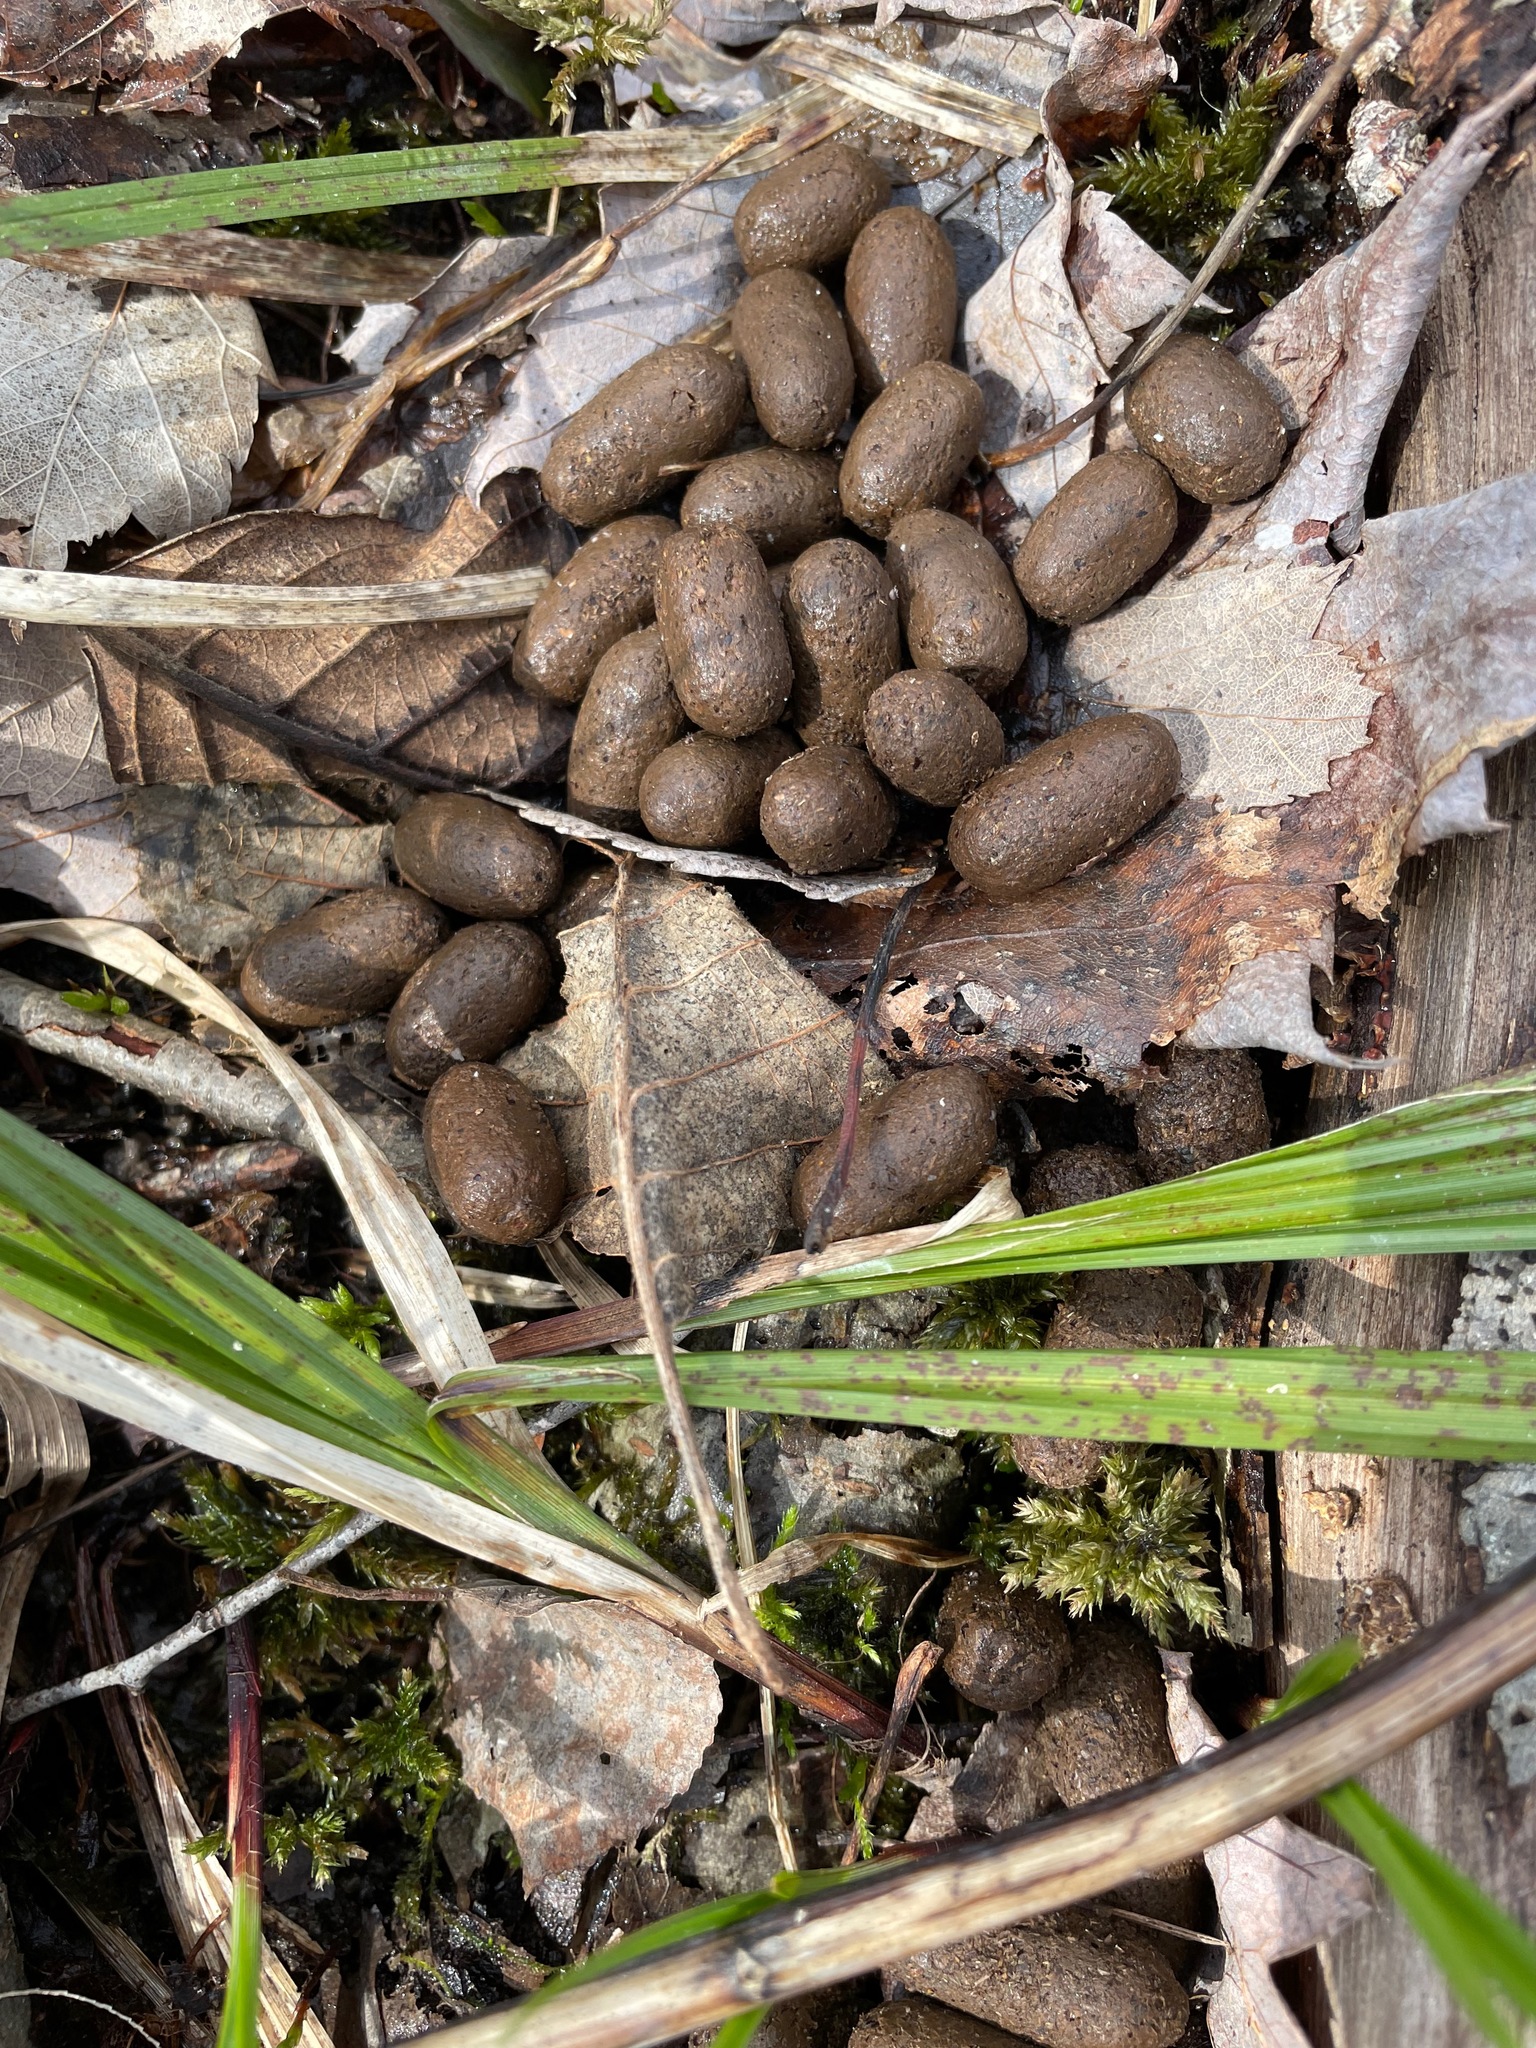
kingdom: Animalia
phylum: Chordata
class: Mammalia
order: Artiodactyla
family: Cervidae
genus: Odocoileus
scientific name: Odocoileus virginianus
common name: White-tailed deer
